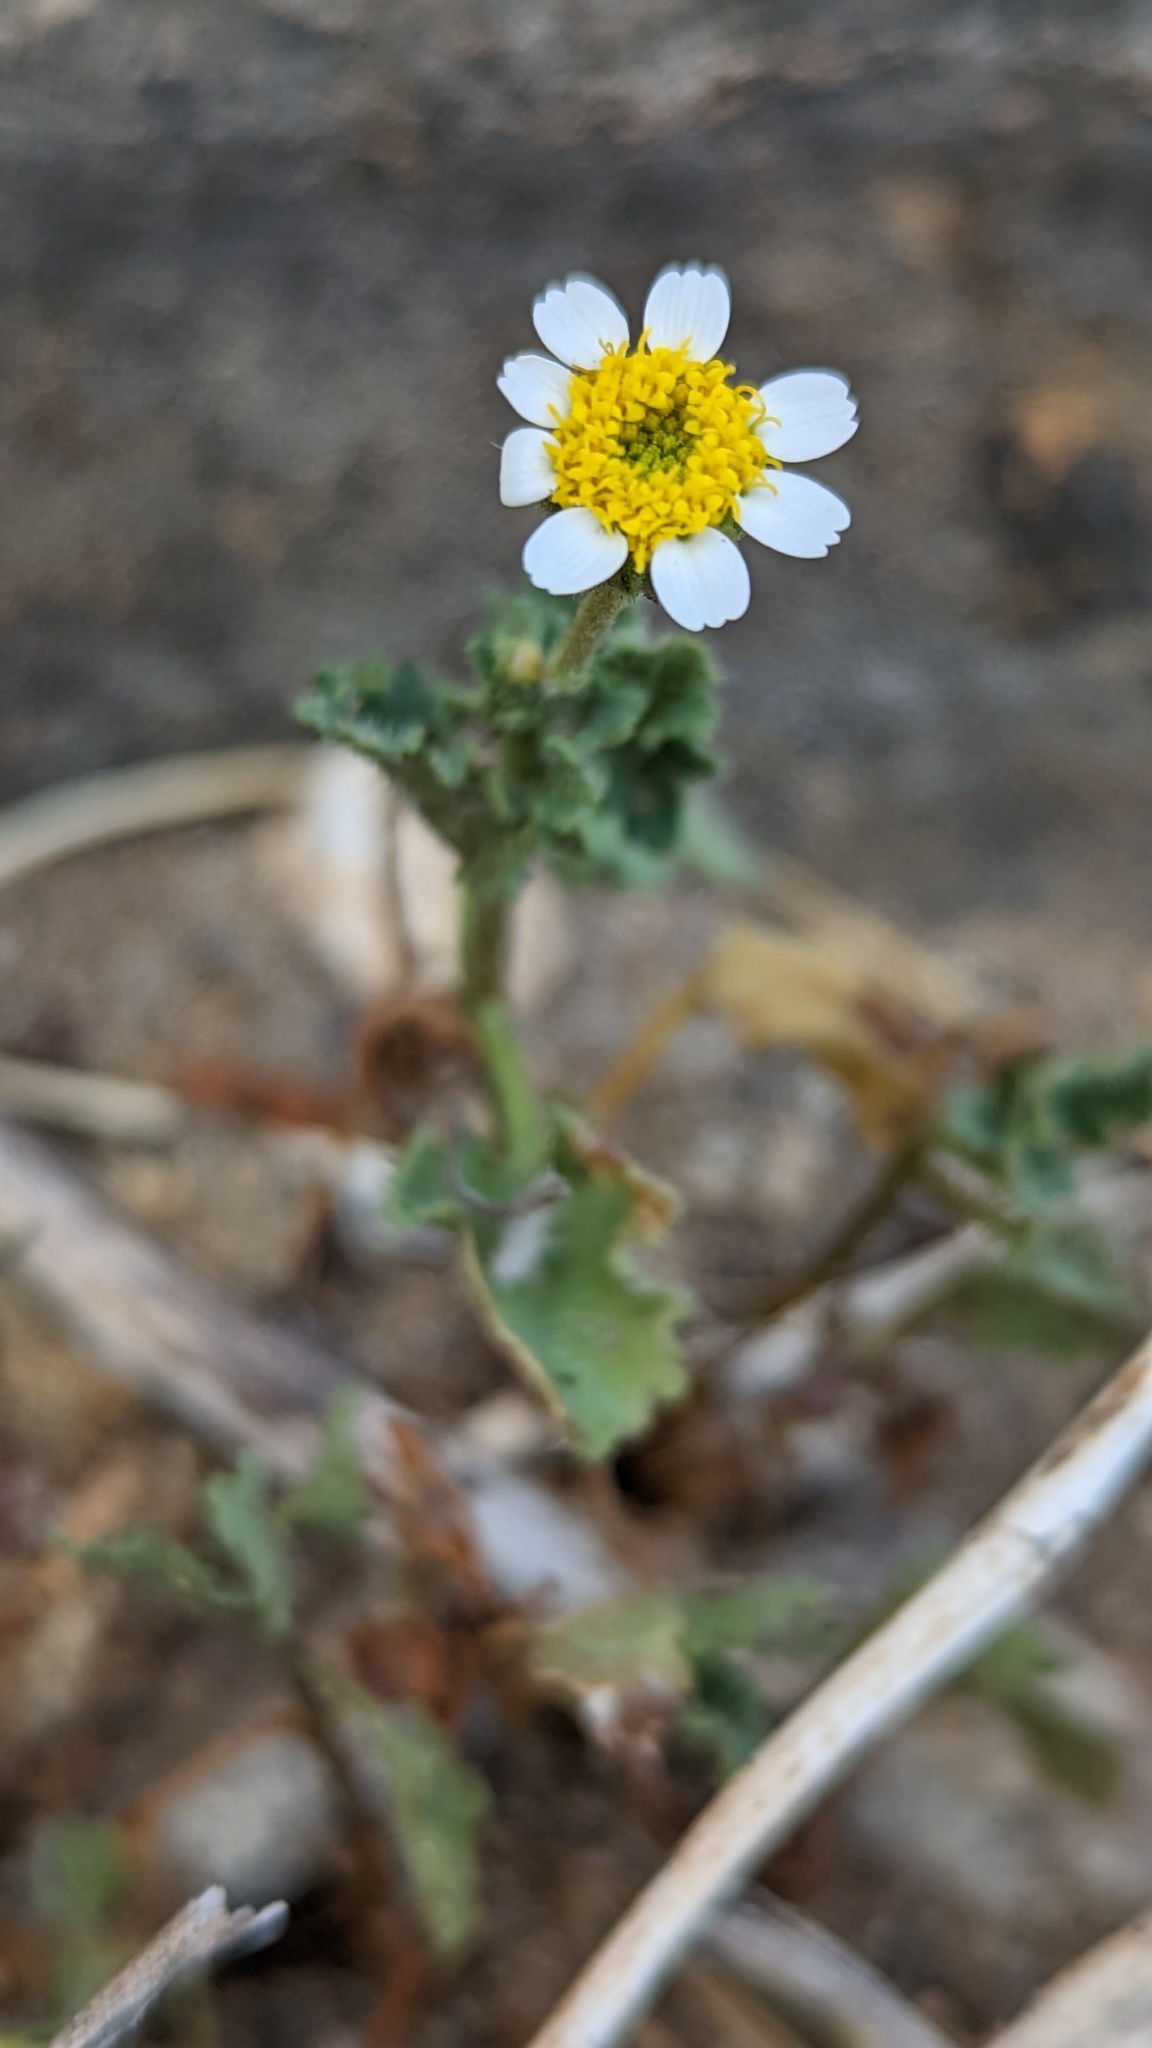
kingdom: Plantae
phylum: Tracheophyta
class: Magnoliopsida
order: Asterales
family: Asteraceae
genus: Laphamia
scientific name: Laphamia emoryi
